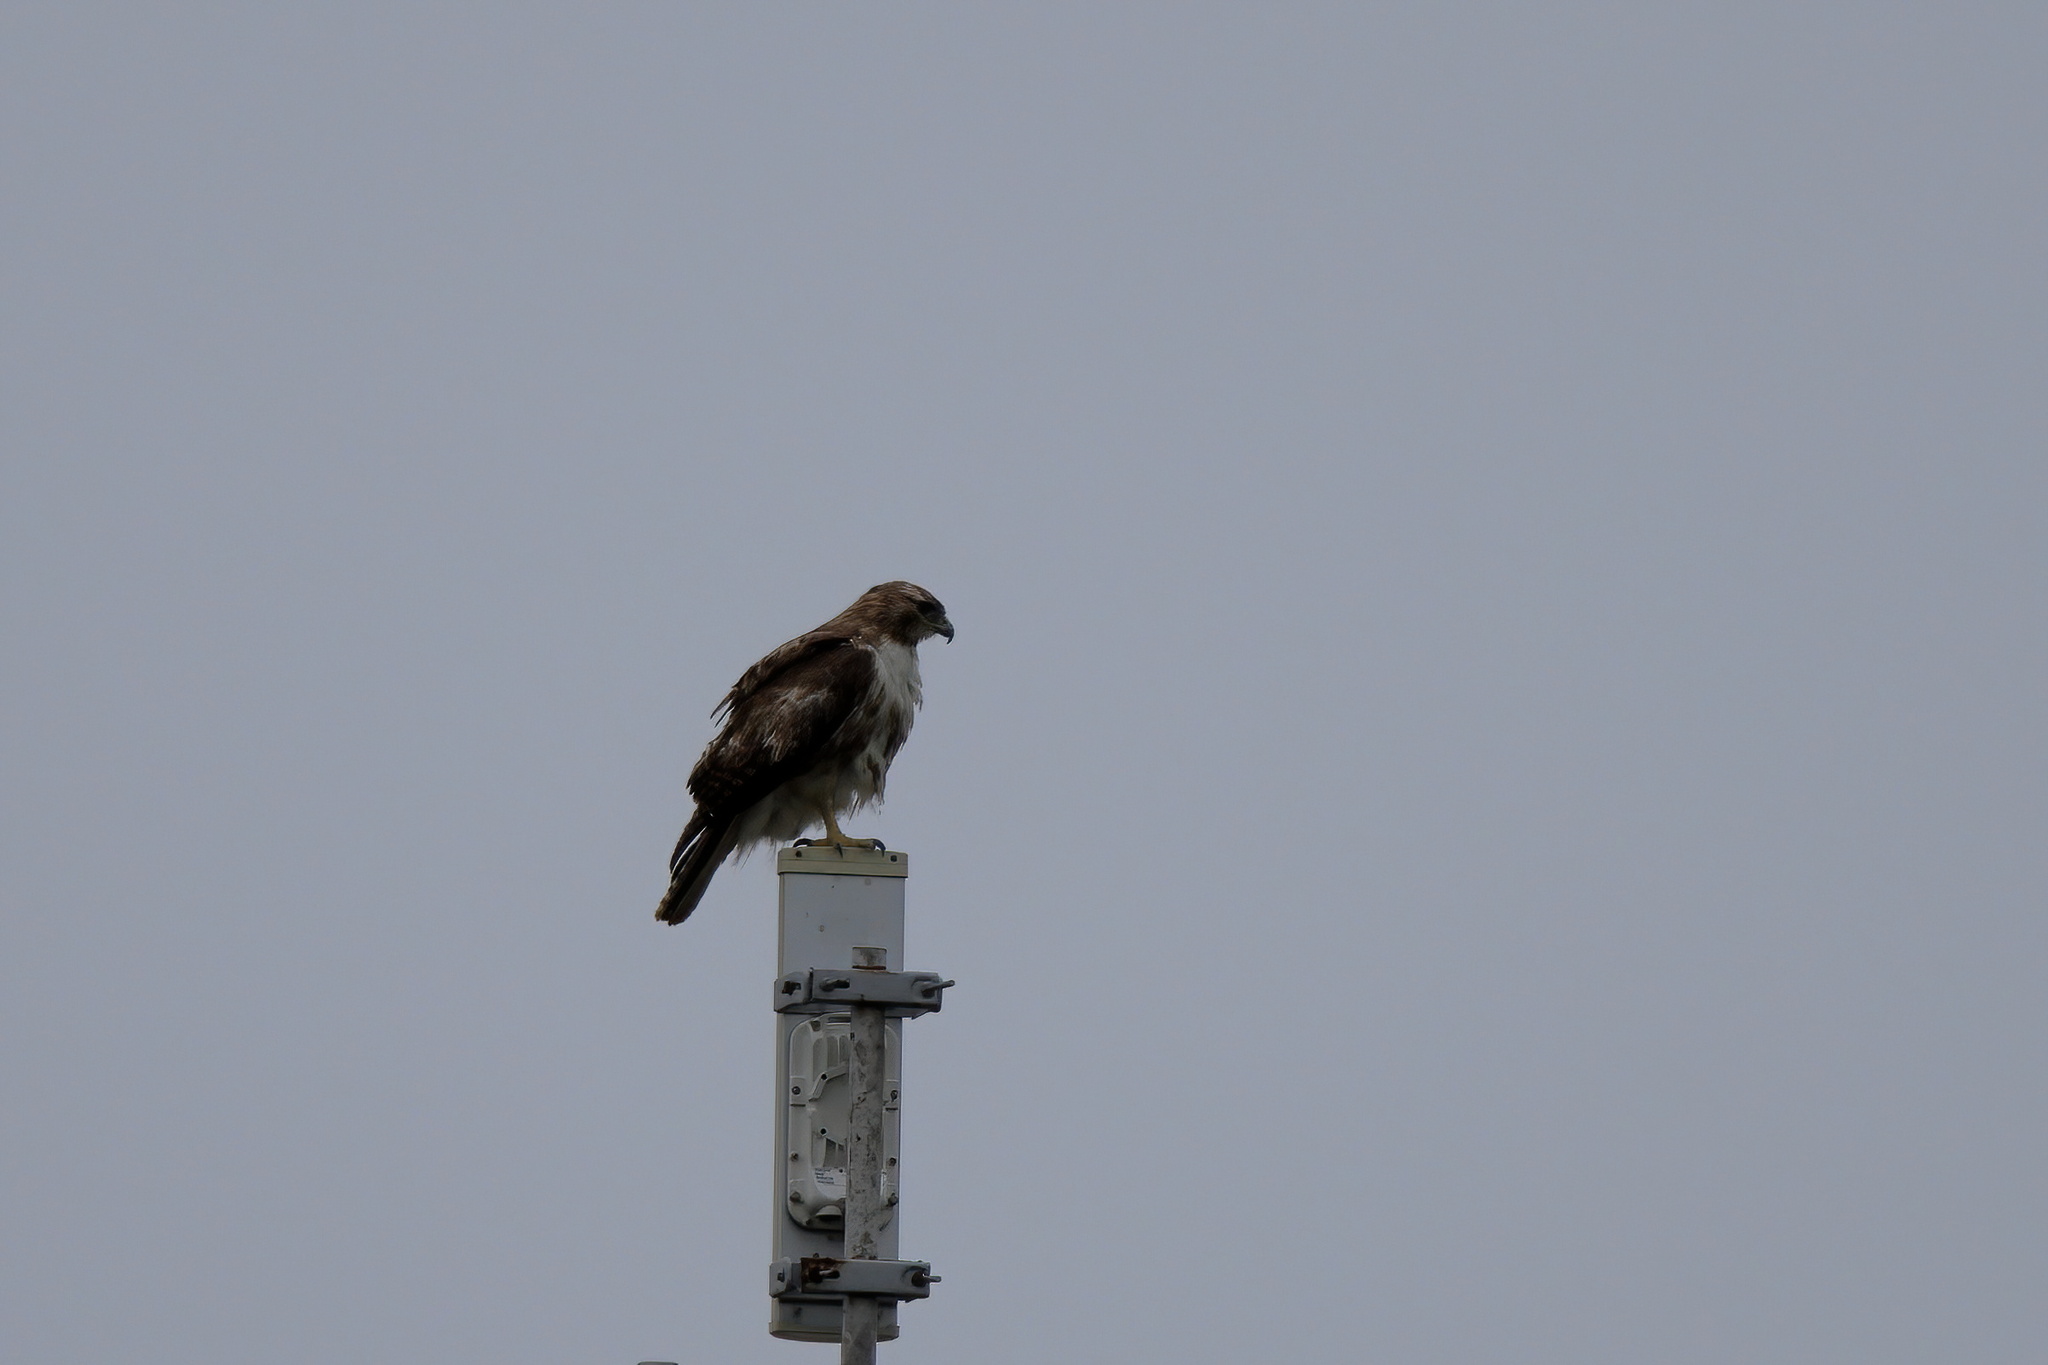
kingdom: Animalia
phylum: Chordata
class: Aves
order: Accipitriformes
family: Accipitridae
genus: Buteo
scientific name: Buteo jamaicensis
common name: Red-tailed hawk
